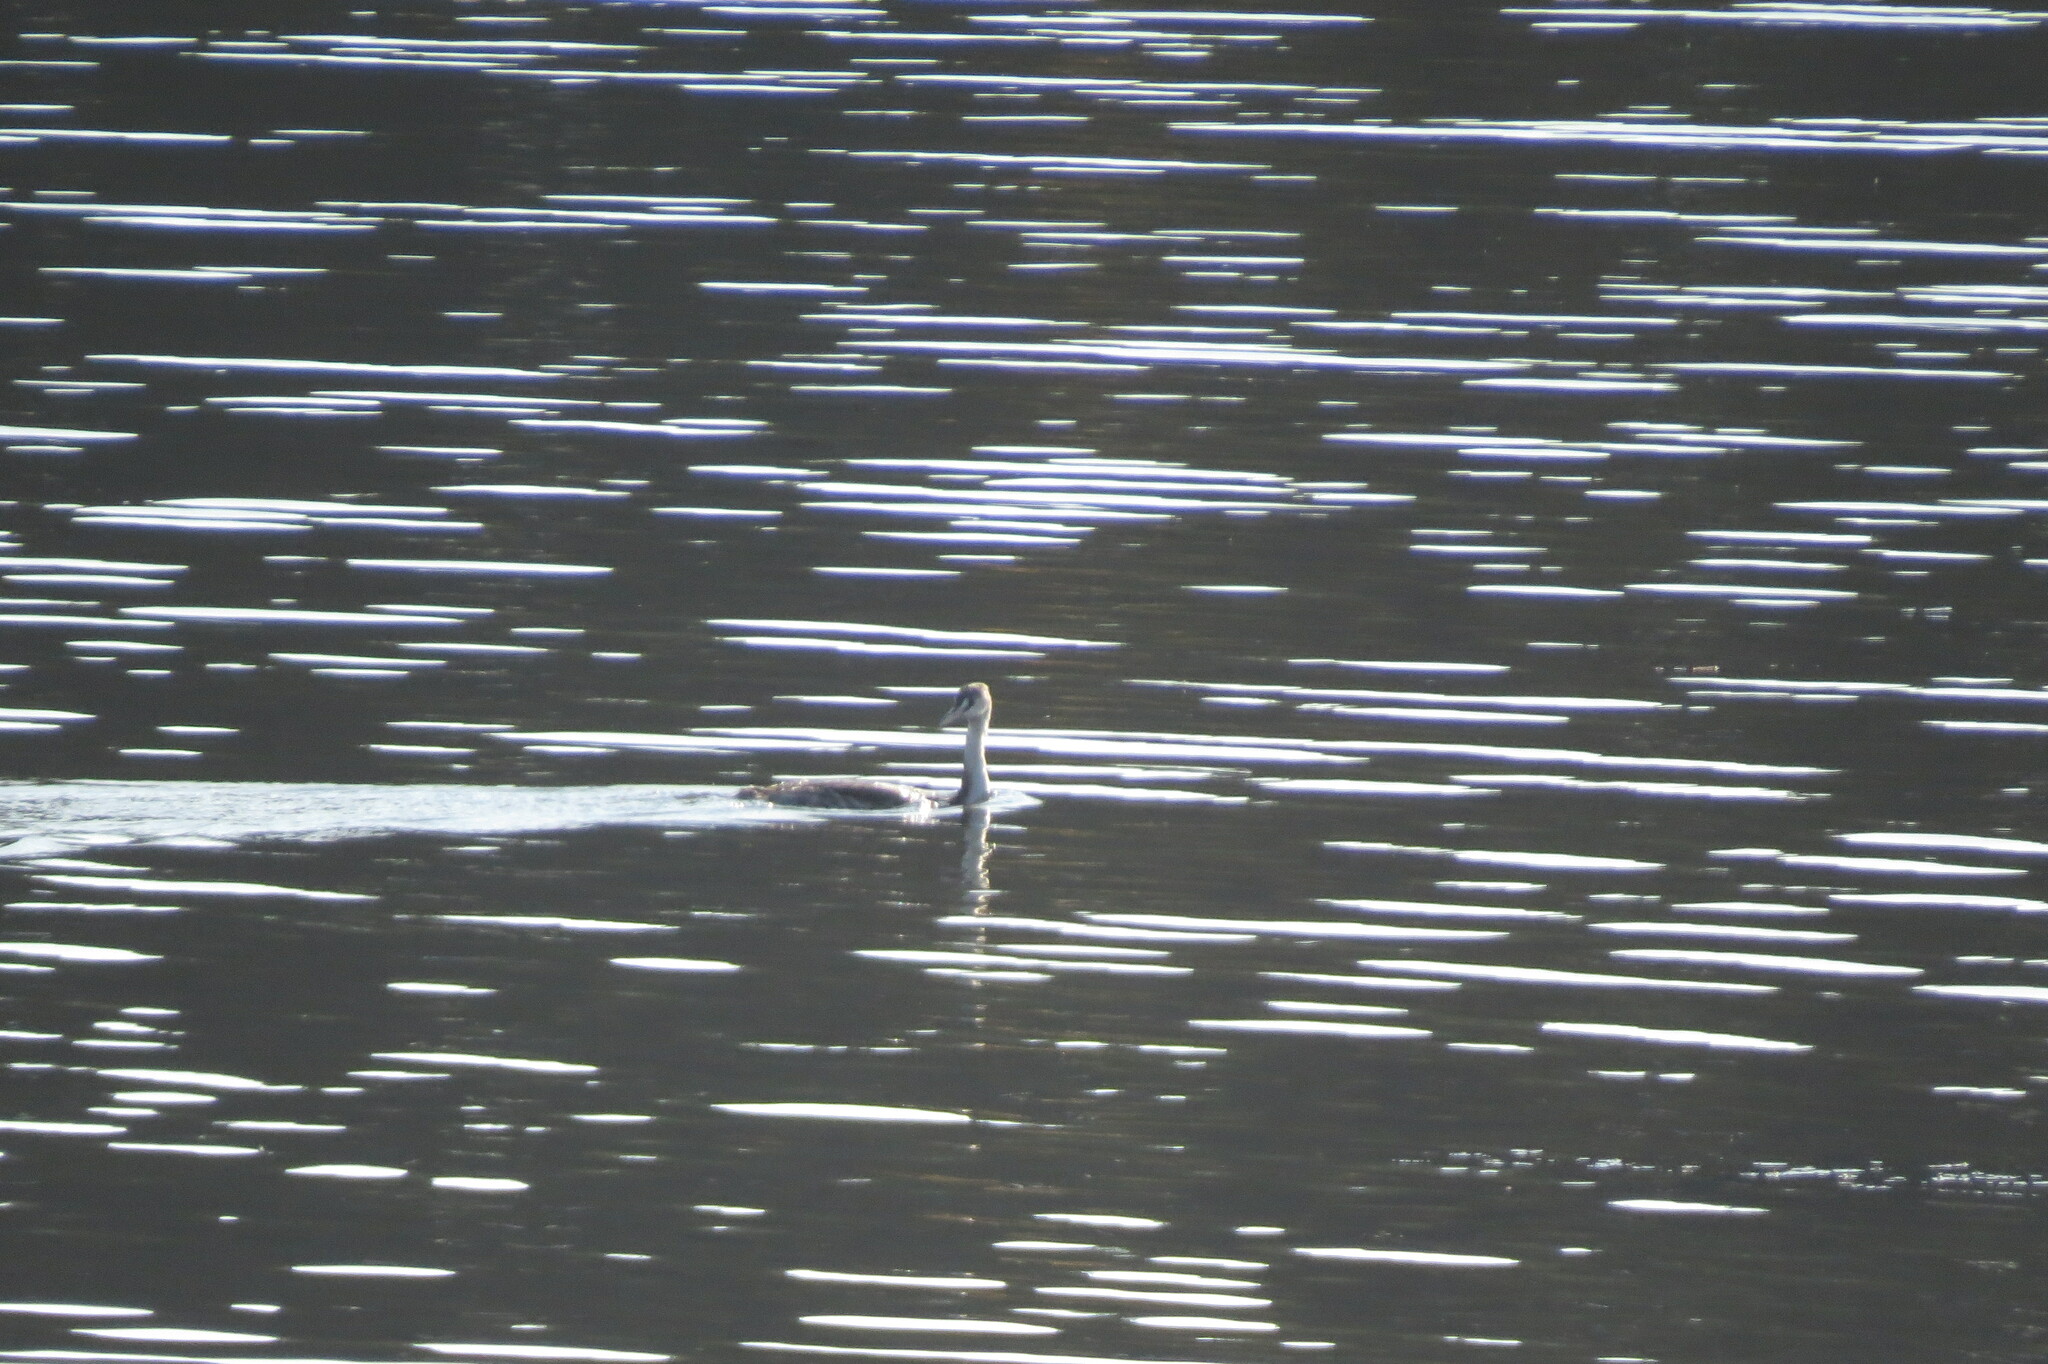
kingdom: Animalia
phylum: Chordata
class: Aves
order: Podicipediformes
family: Podicipedidae
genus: Podiceps
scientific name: Podiceps cristatus
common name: Great crested grebe
